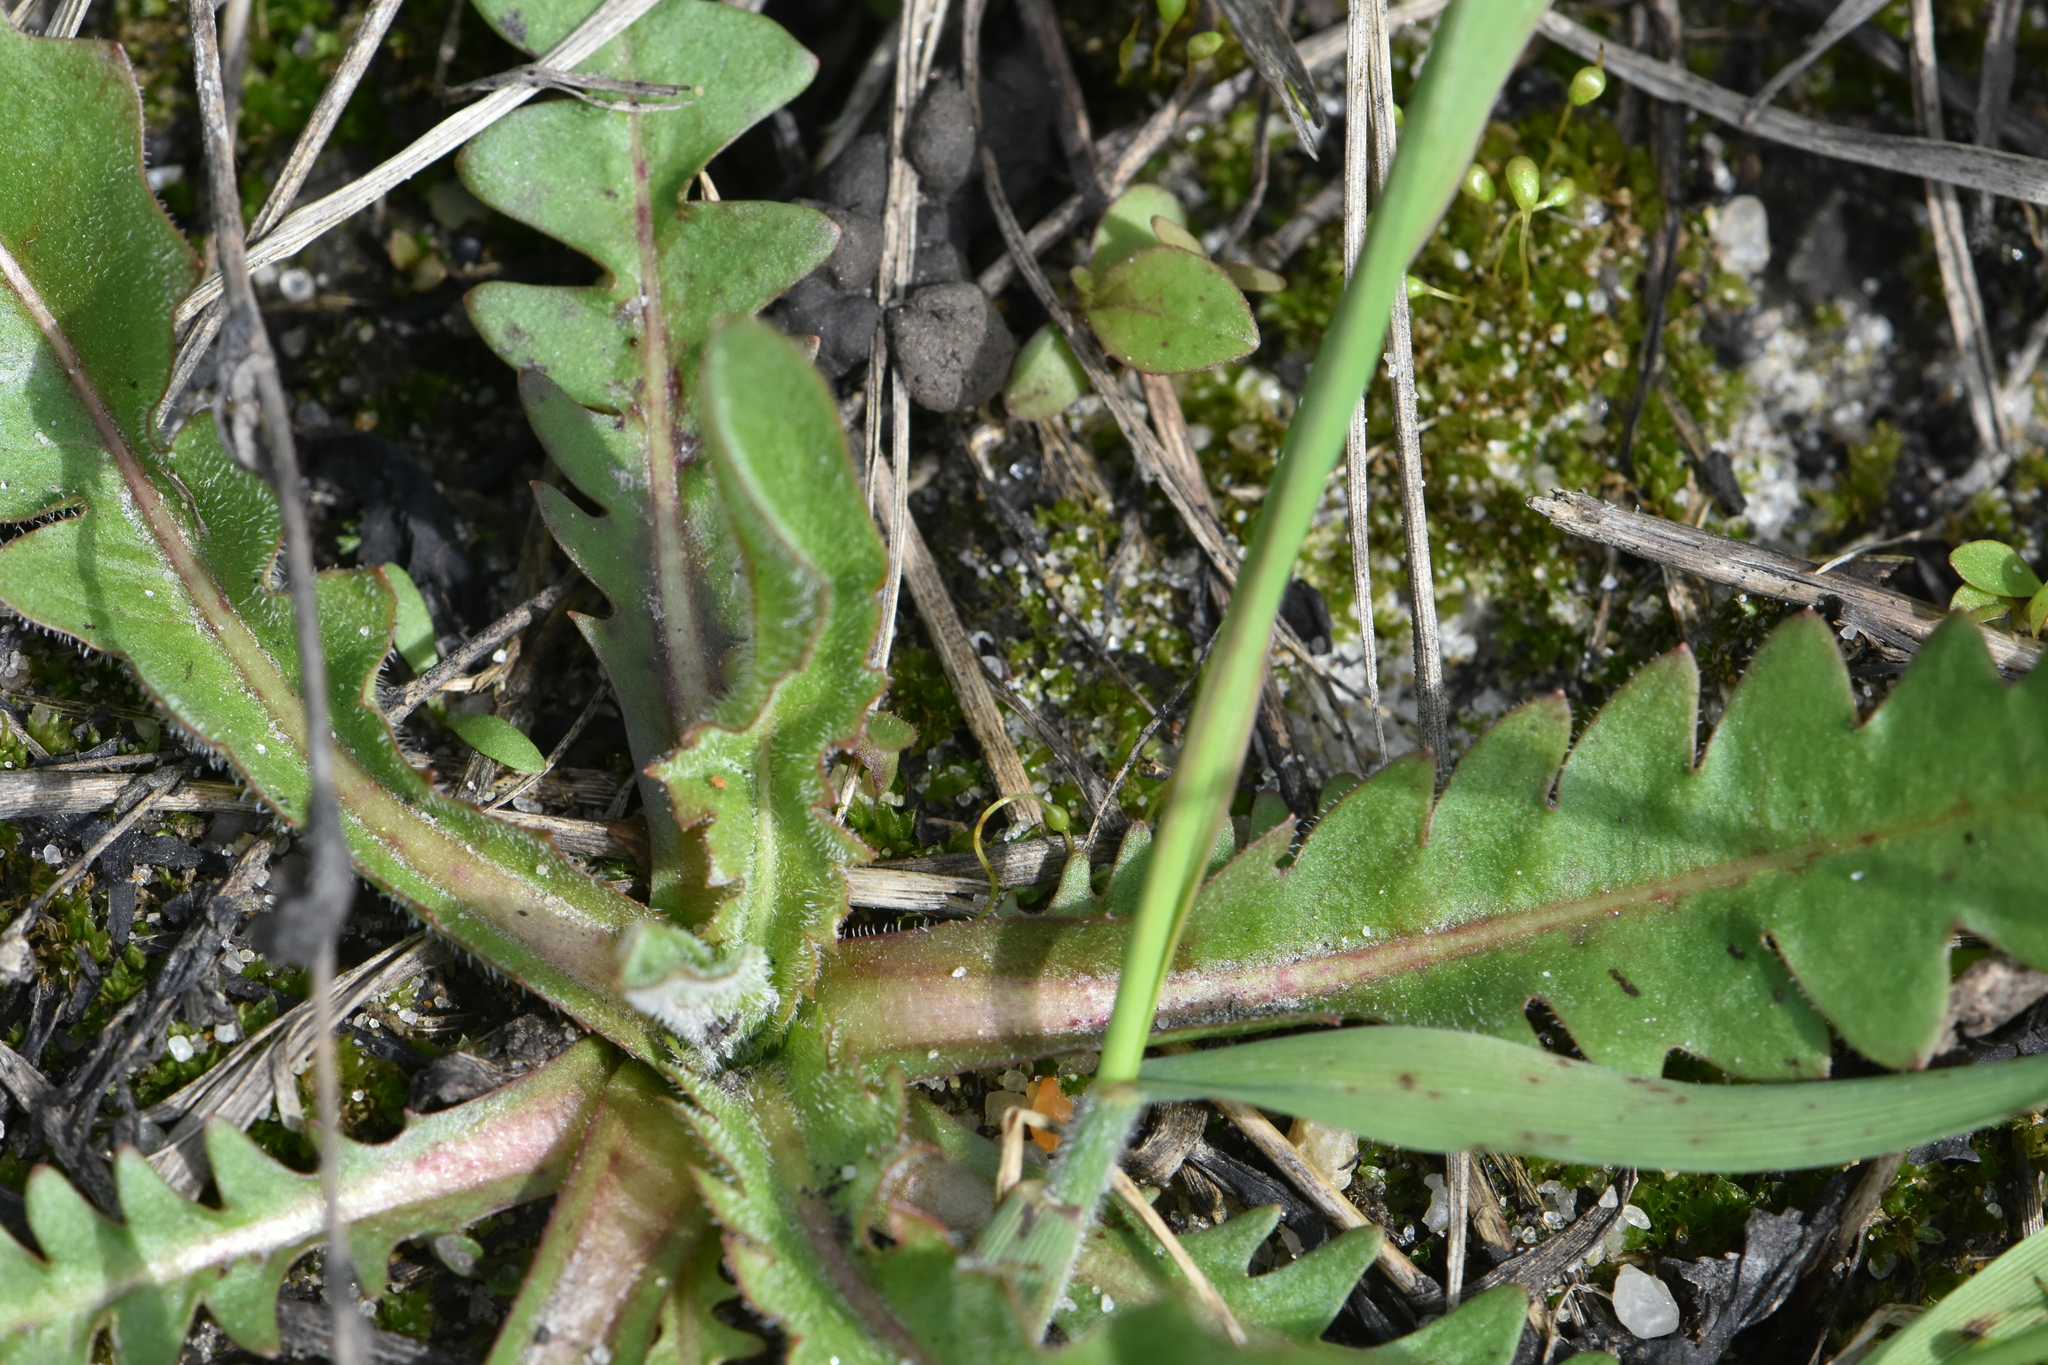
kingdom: Plantae
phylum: Tracheophyta
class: Magnoliopsida
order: Asterales
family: Asteraceae
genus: Taraxacum
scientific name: Taraxacum officinale
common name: Common dandelion
